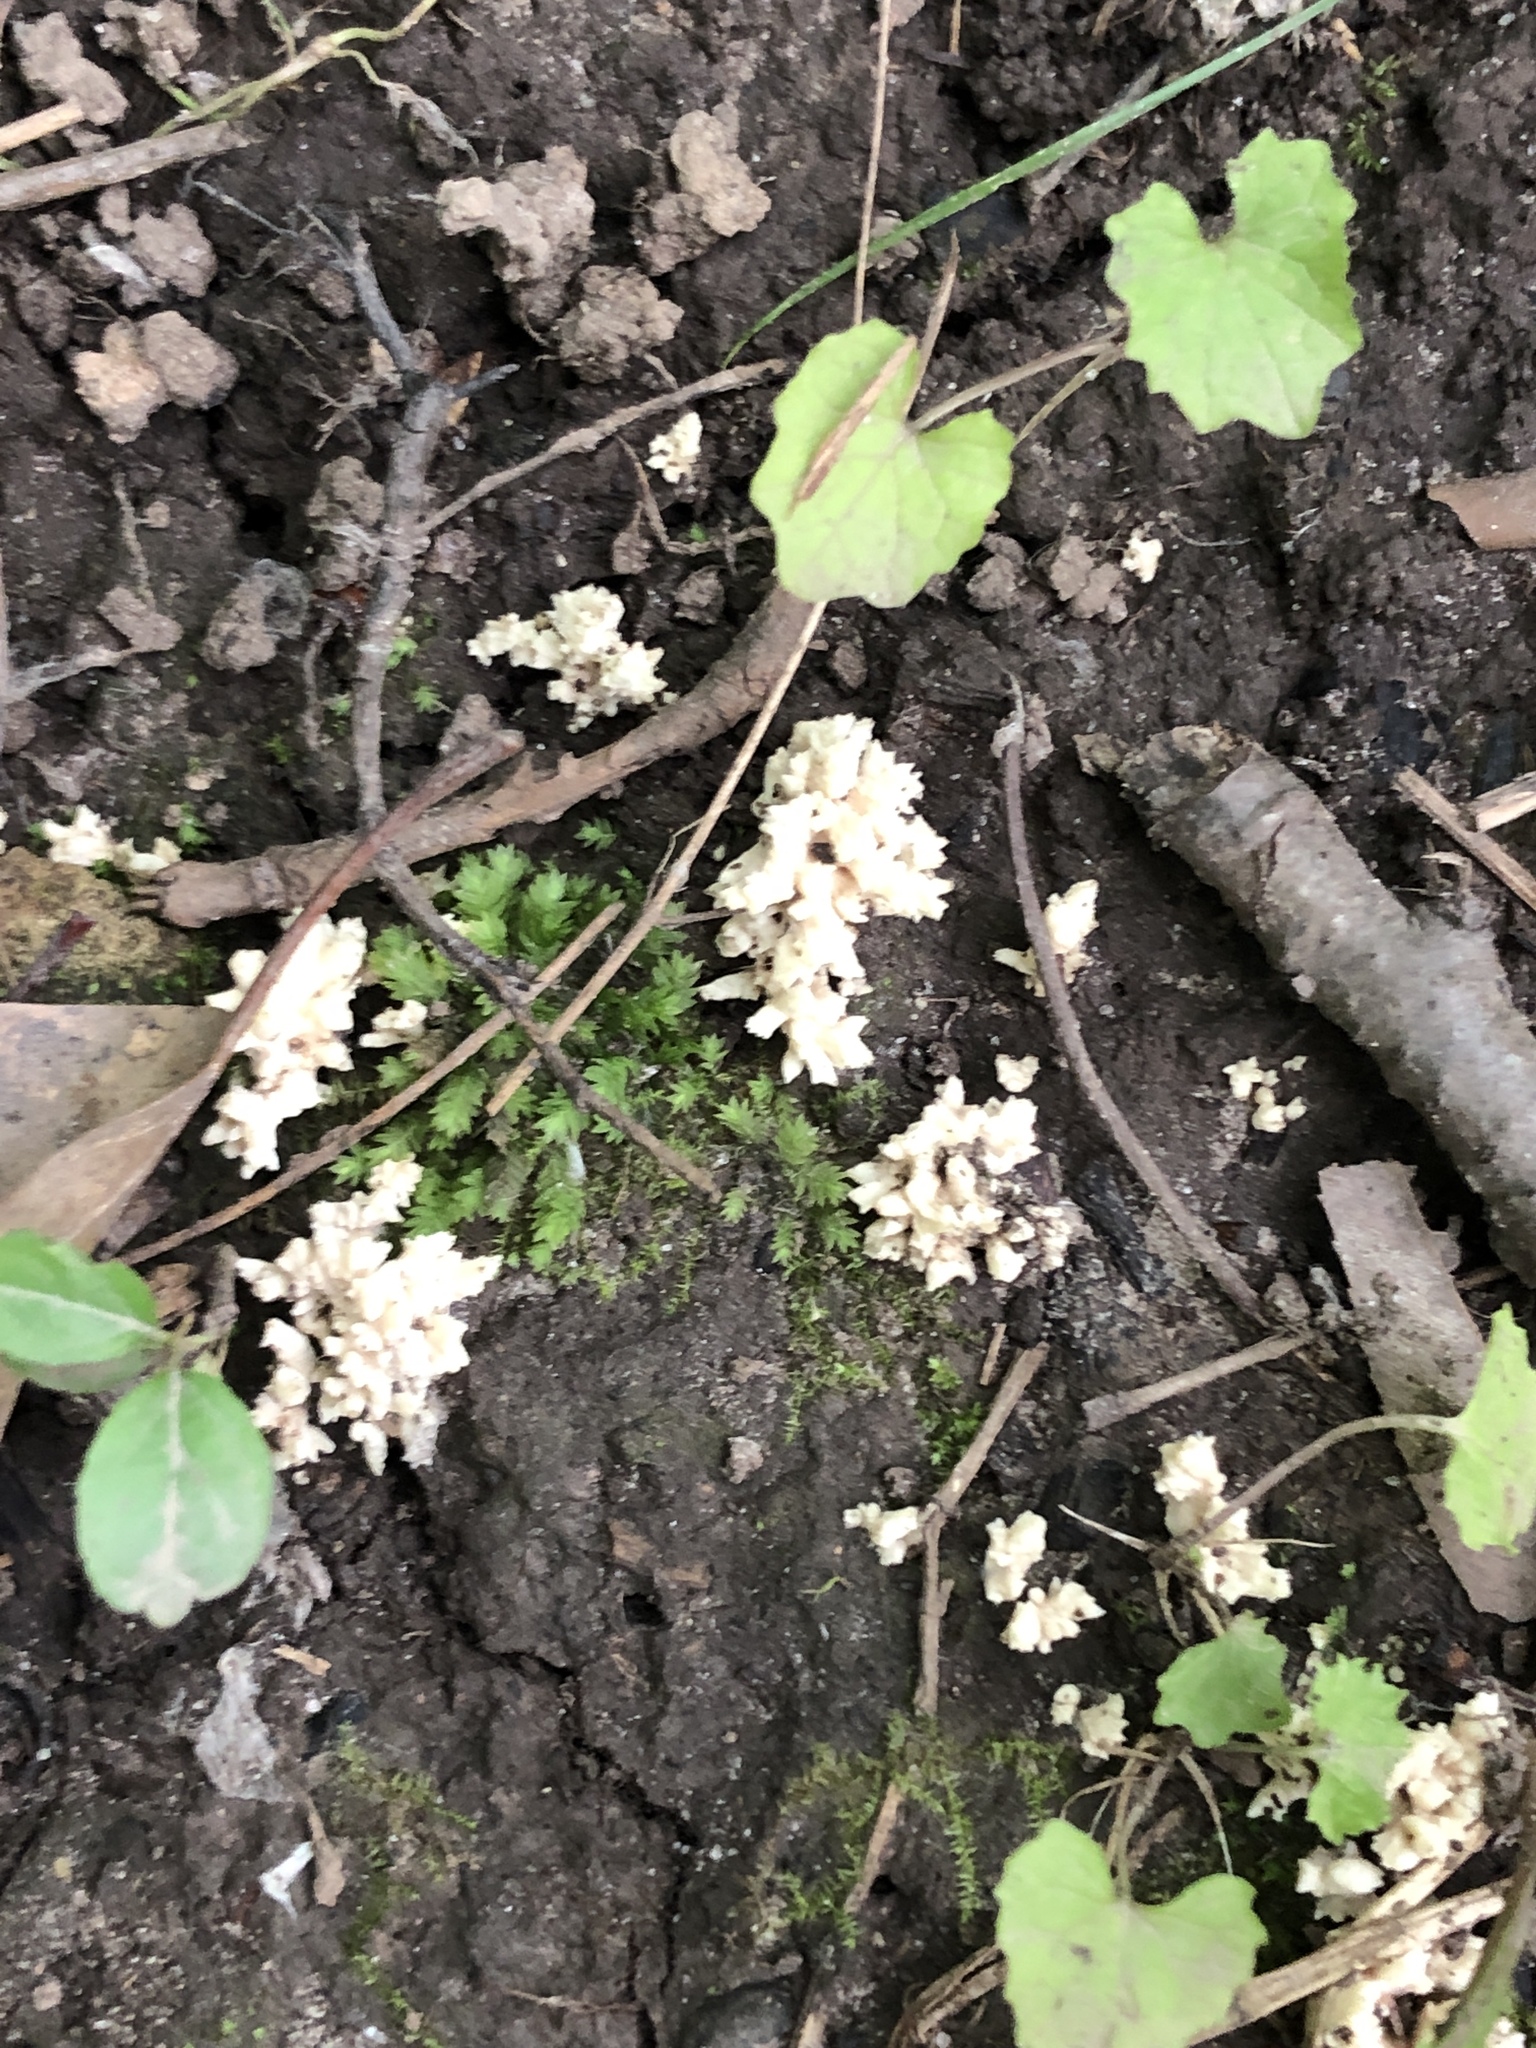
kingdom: Fungi
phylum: Basidiomycota
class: Agaricomycetes
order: Russulales
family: Auriscalpiaceae
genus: Artomyces
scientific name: Artomyces pyxidatus
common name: Crown-tipped coral fungus
